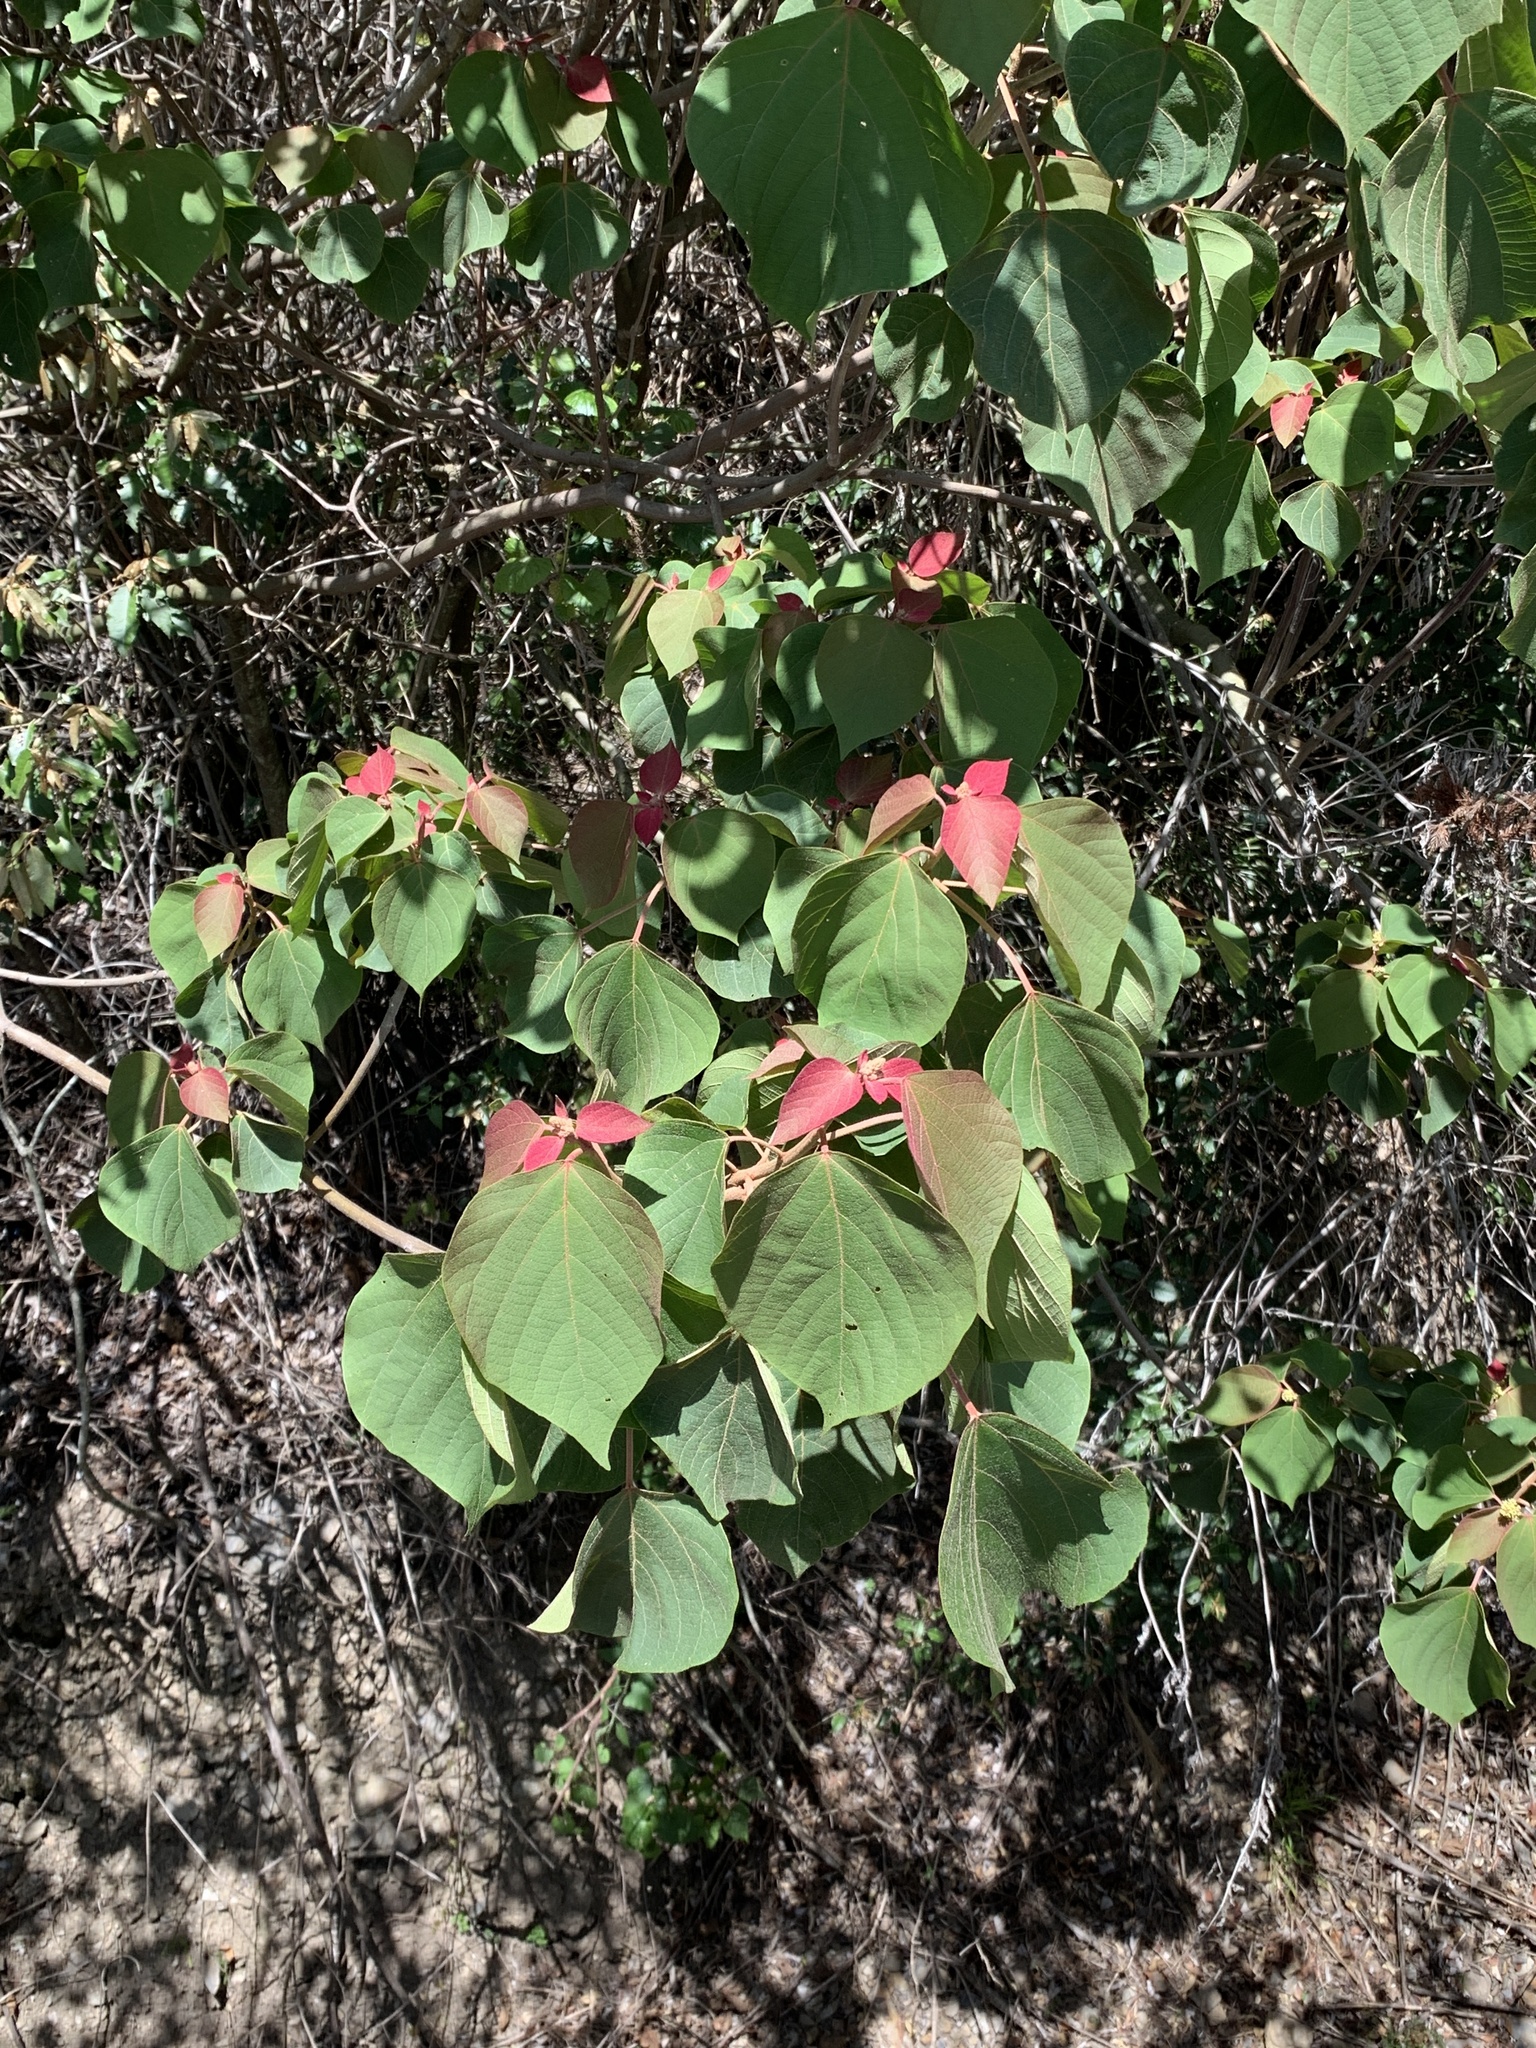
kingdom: Plantae
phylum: Tracheophyta
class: Magnoliopsida
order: Malpighiales
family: Euphorbiaceae
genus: Mallotus
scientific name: Mallotus japonicus
